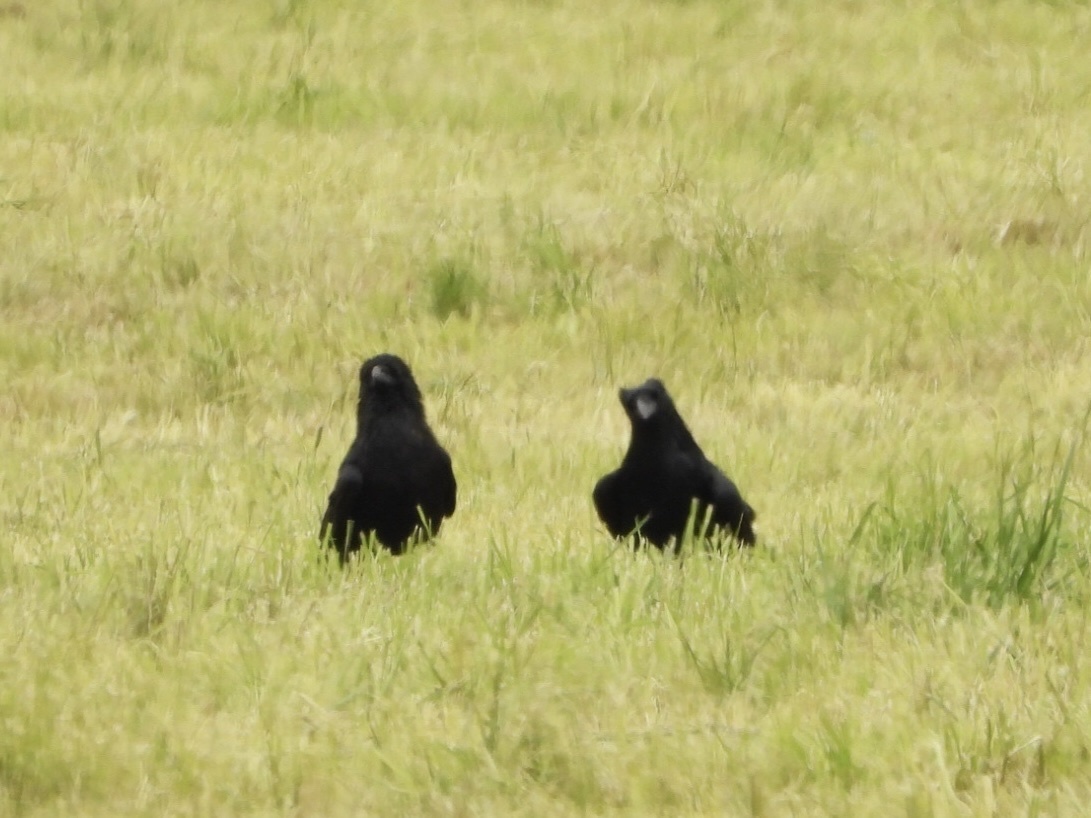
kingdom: Animalia
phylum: Chordata
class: Aves
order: Passeriformes
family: Corvidae
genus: Corvus
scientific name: Corvus corax
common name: Common raven
